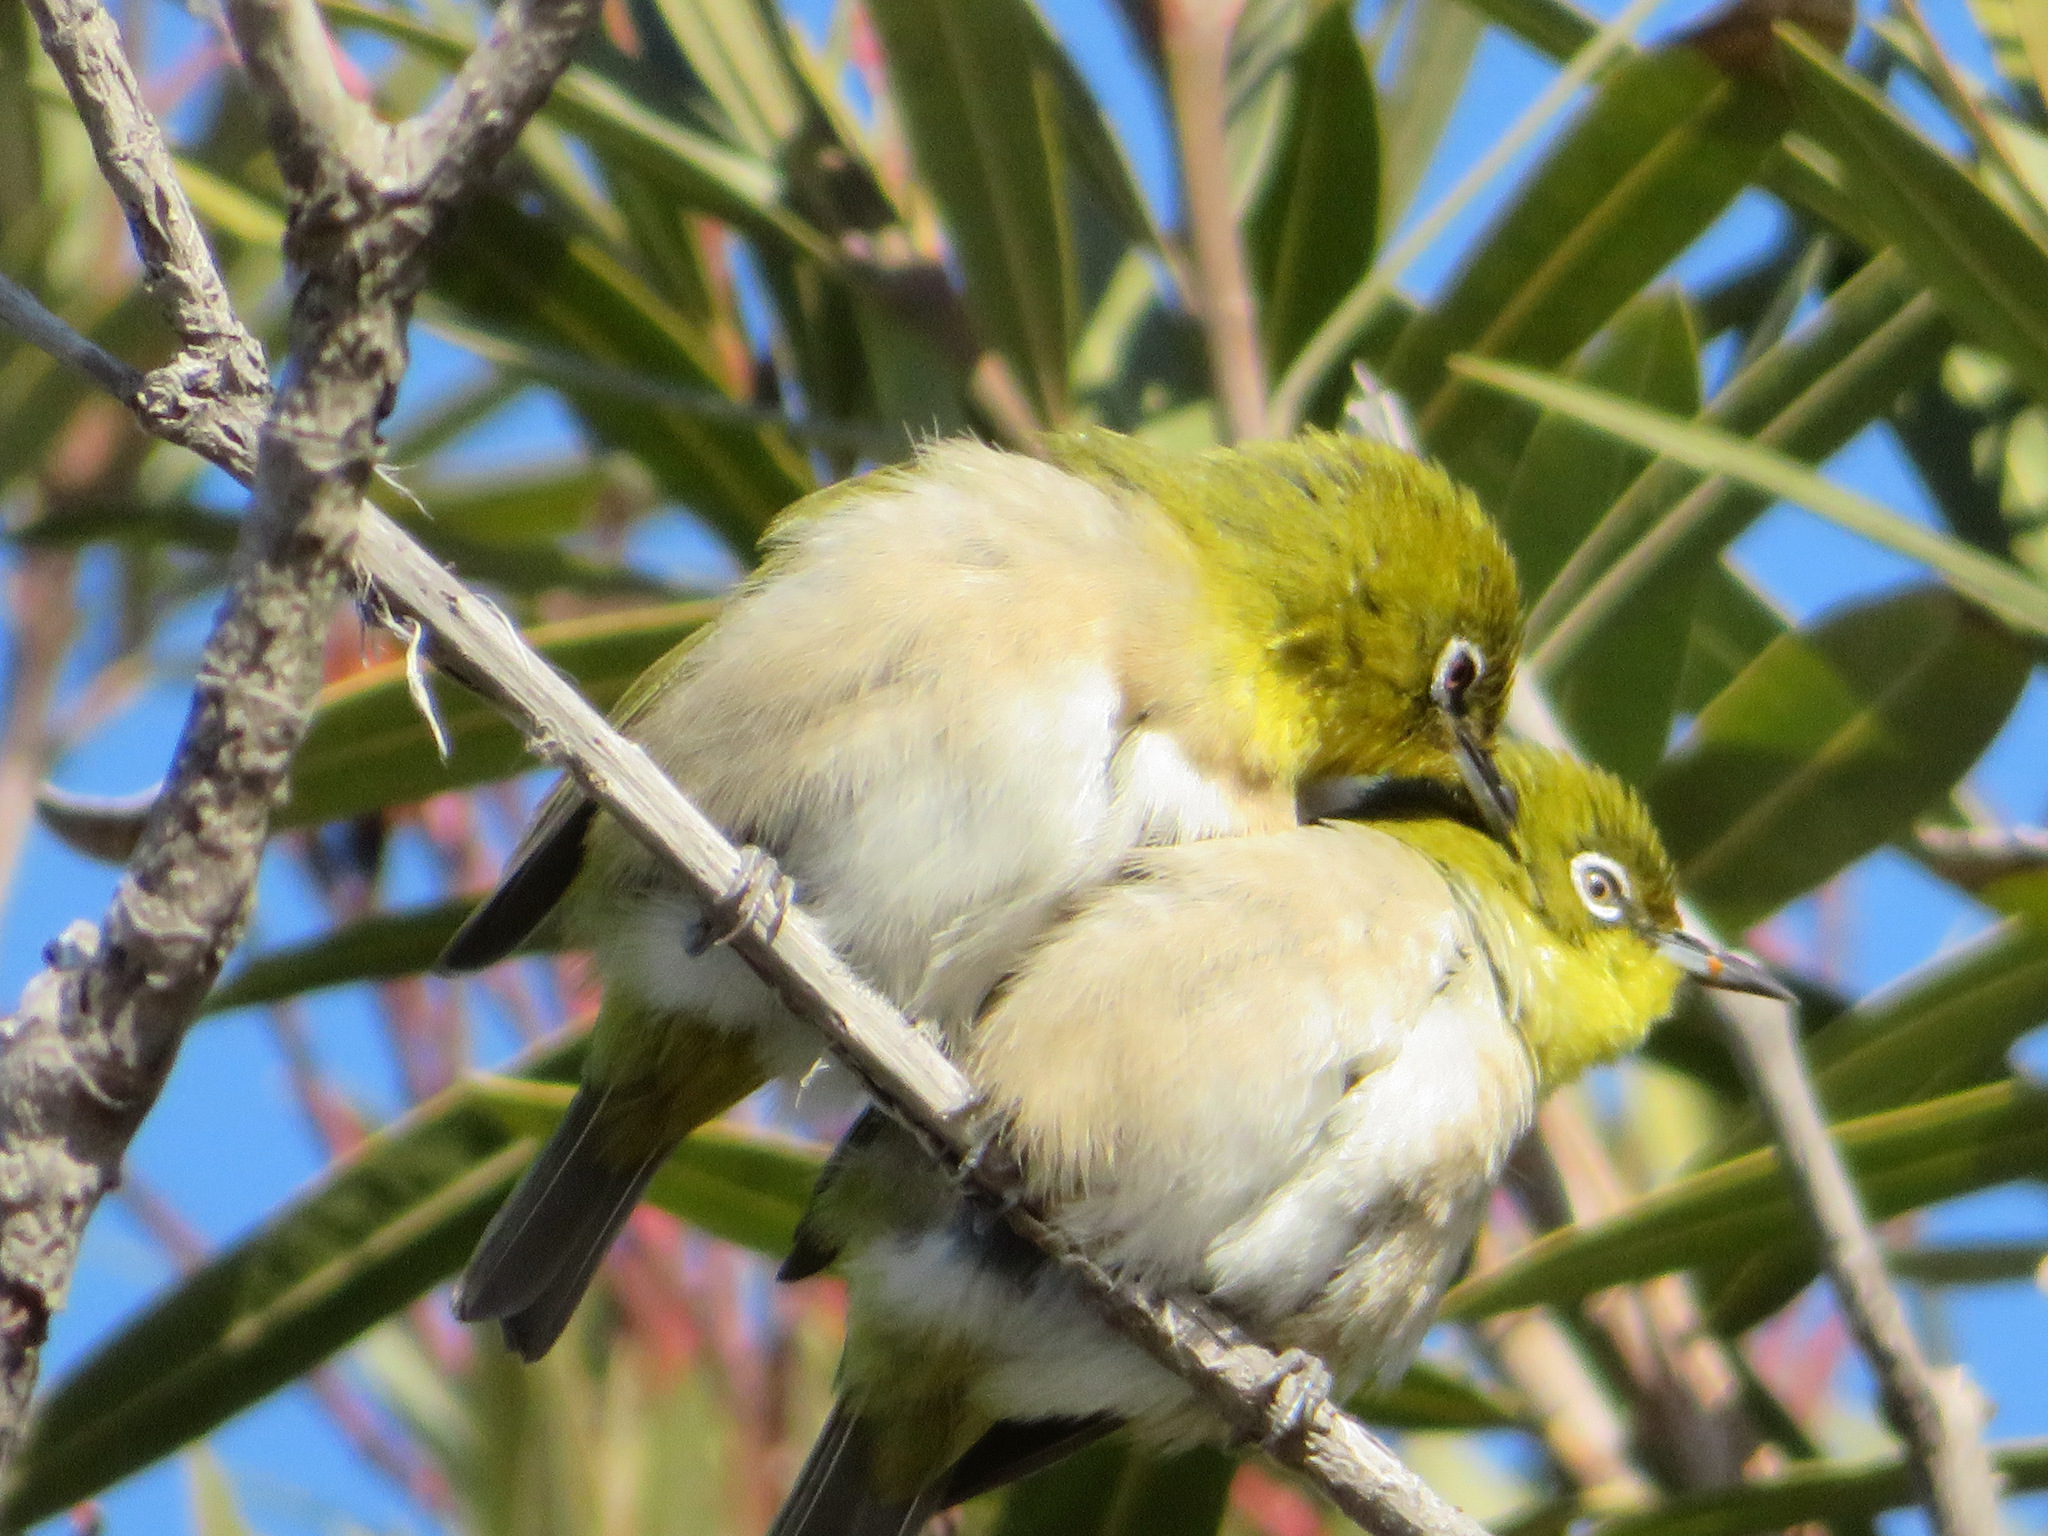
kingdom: Animalia
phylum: Chordata
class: Aves
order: Passeriformes
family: Zosteropidae
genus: Zosterops
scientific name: Zosterops japonicus
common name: Japanese white-eye
